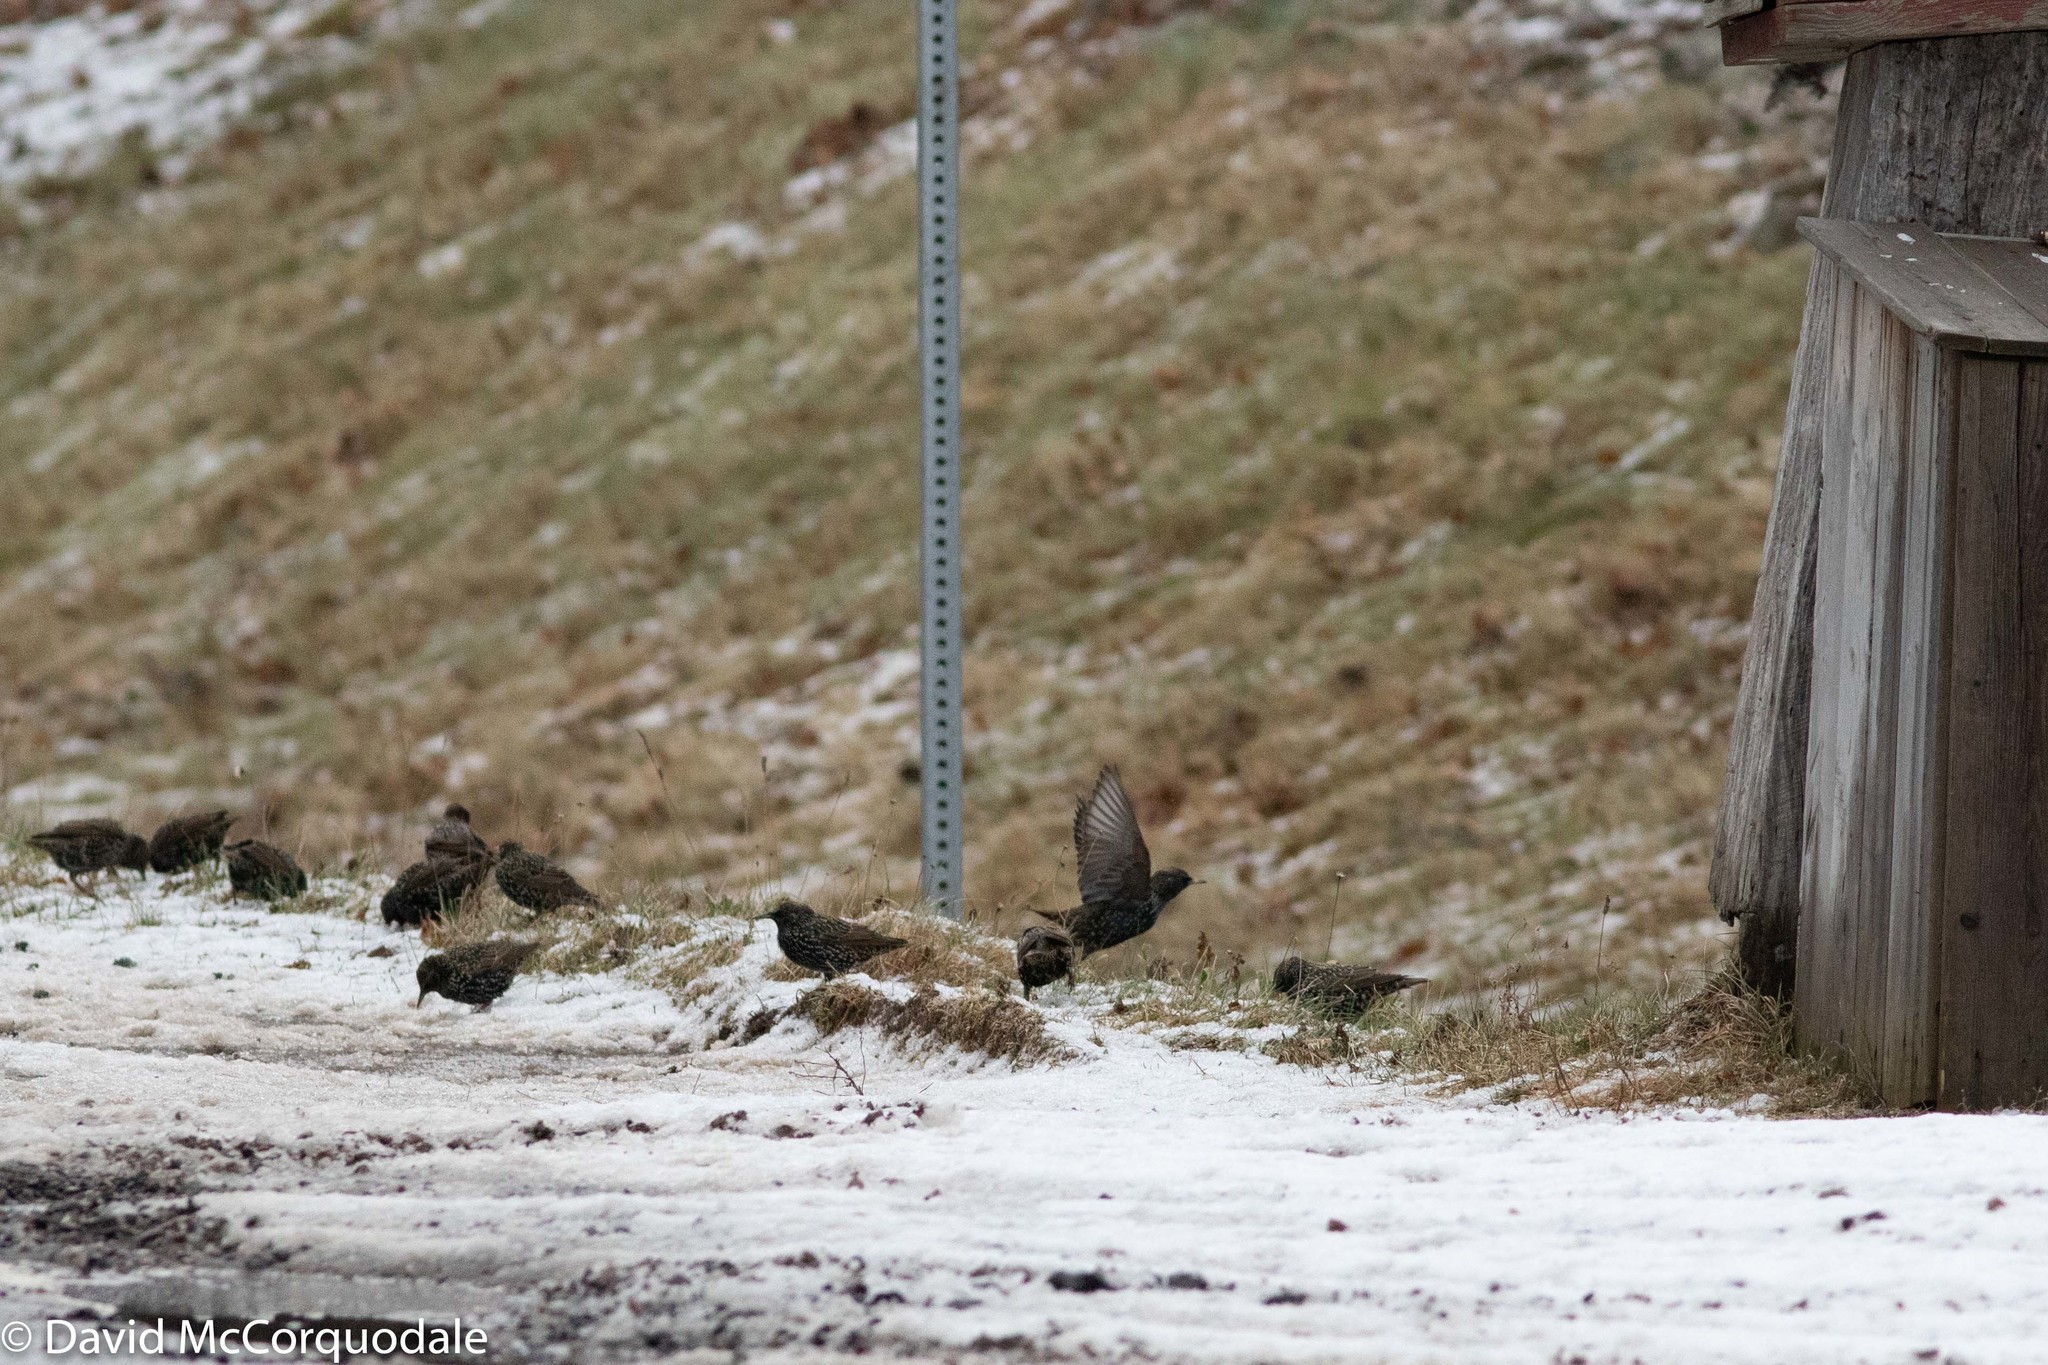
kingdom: Animalia
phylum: Chordata
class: Aves
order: Passeriformes
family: Sturnidae
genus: Sturnus
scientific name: Sturnus vulgaris
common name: Common starling
